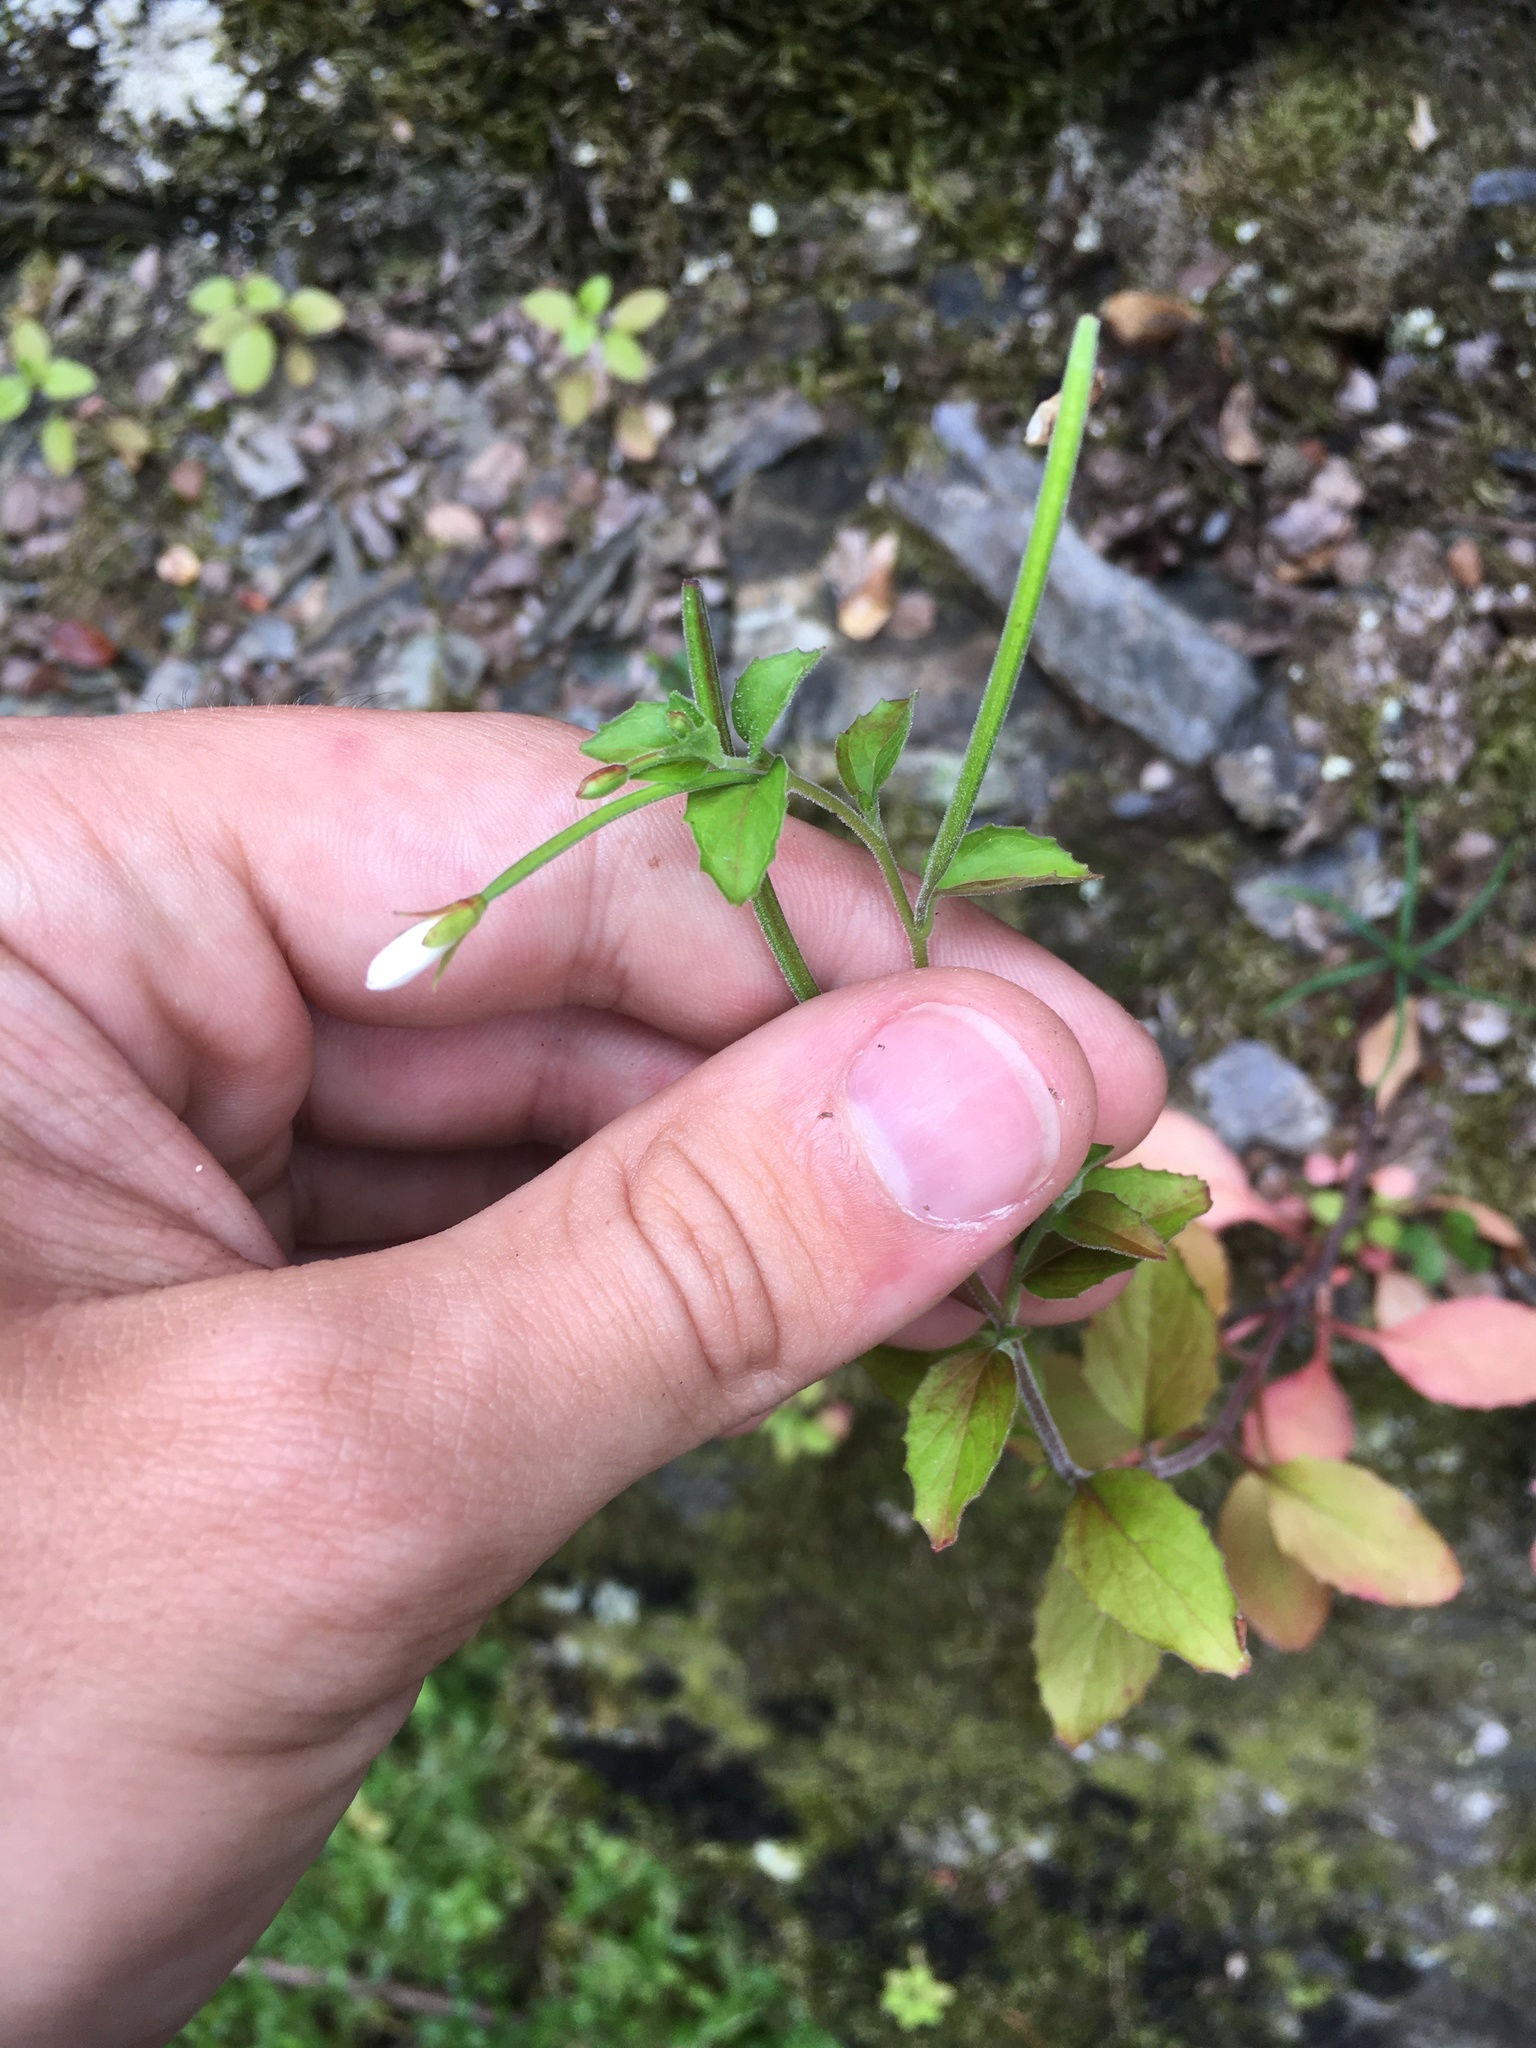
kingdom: Plantae
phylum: Tracheophyta
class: Magnoliopsida
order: Myrtales
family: Onagraceae
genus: Epilobium
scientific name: Epilobium pubens
